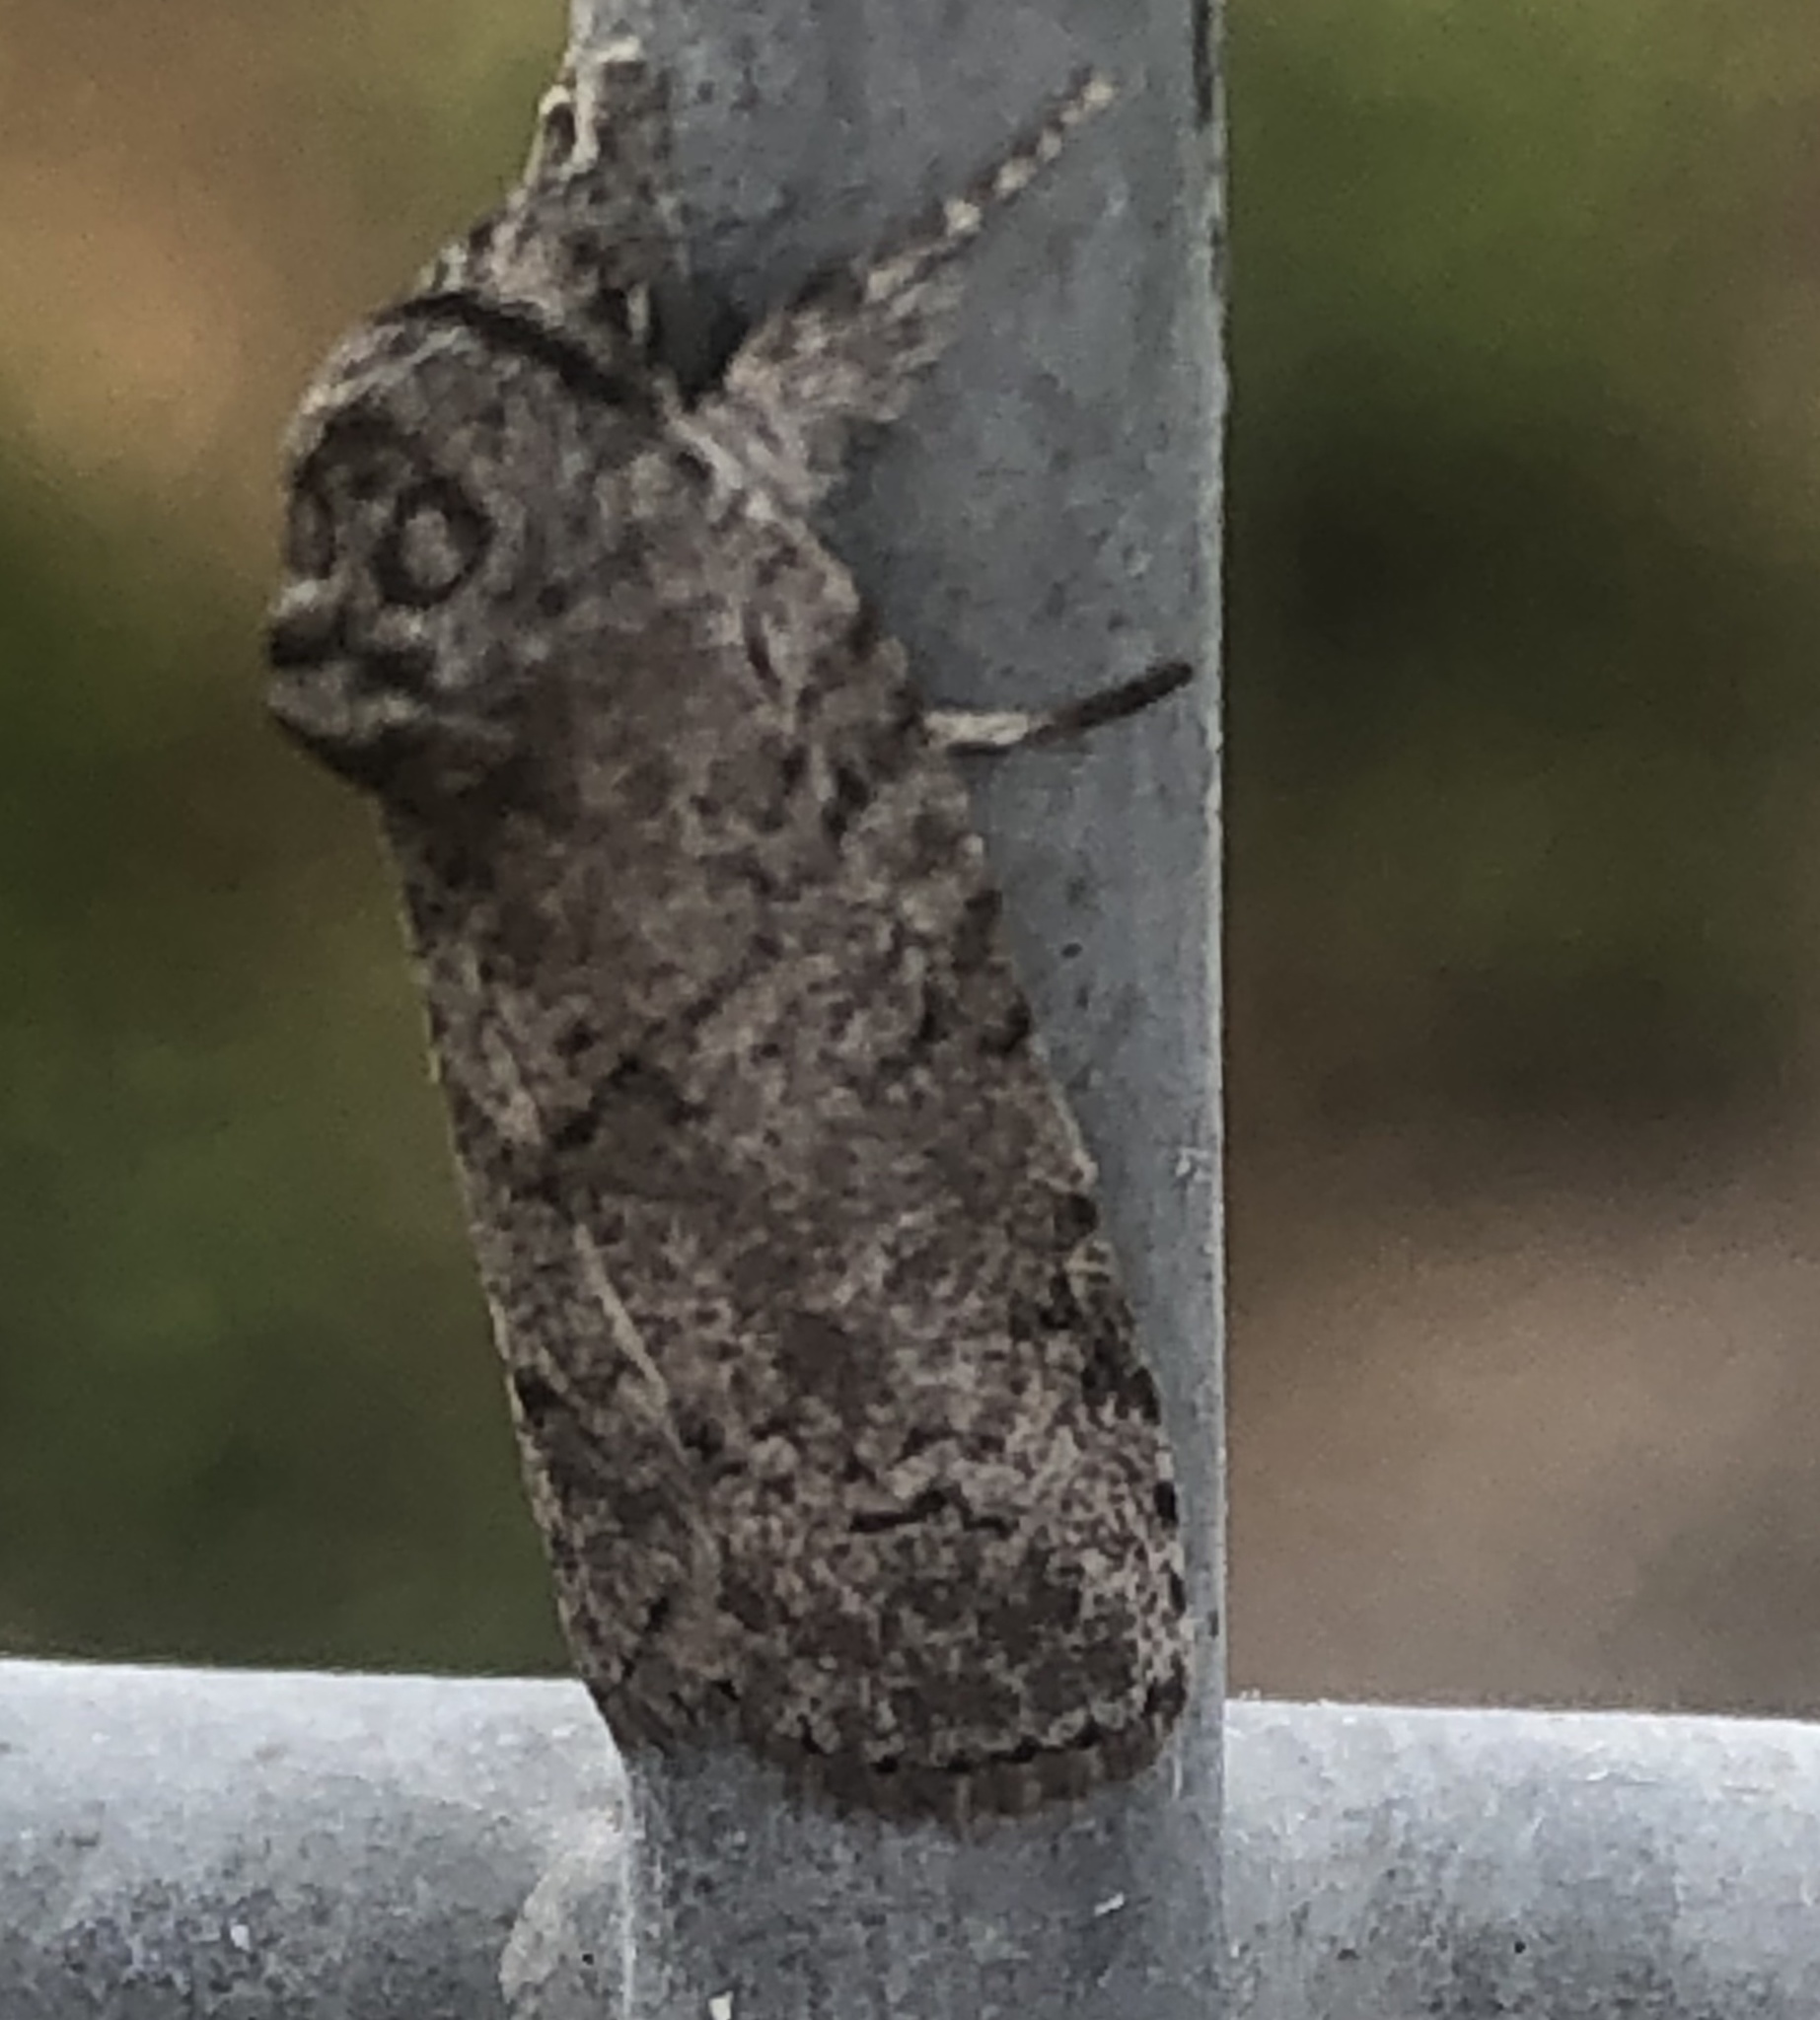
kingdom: Animalia
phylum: Arthropoda
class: Insecta
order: Lepidoptera
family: Nolidae
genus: Nycteola
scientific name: Nycteola polycyma
